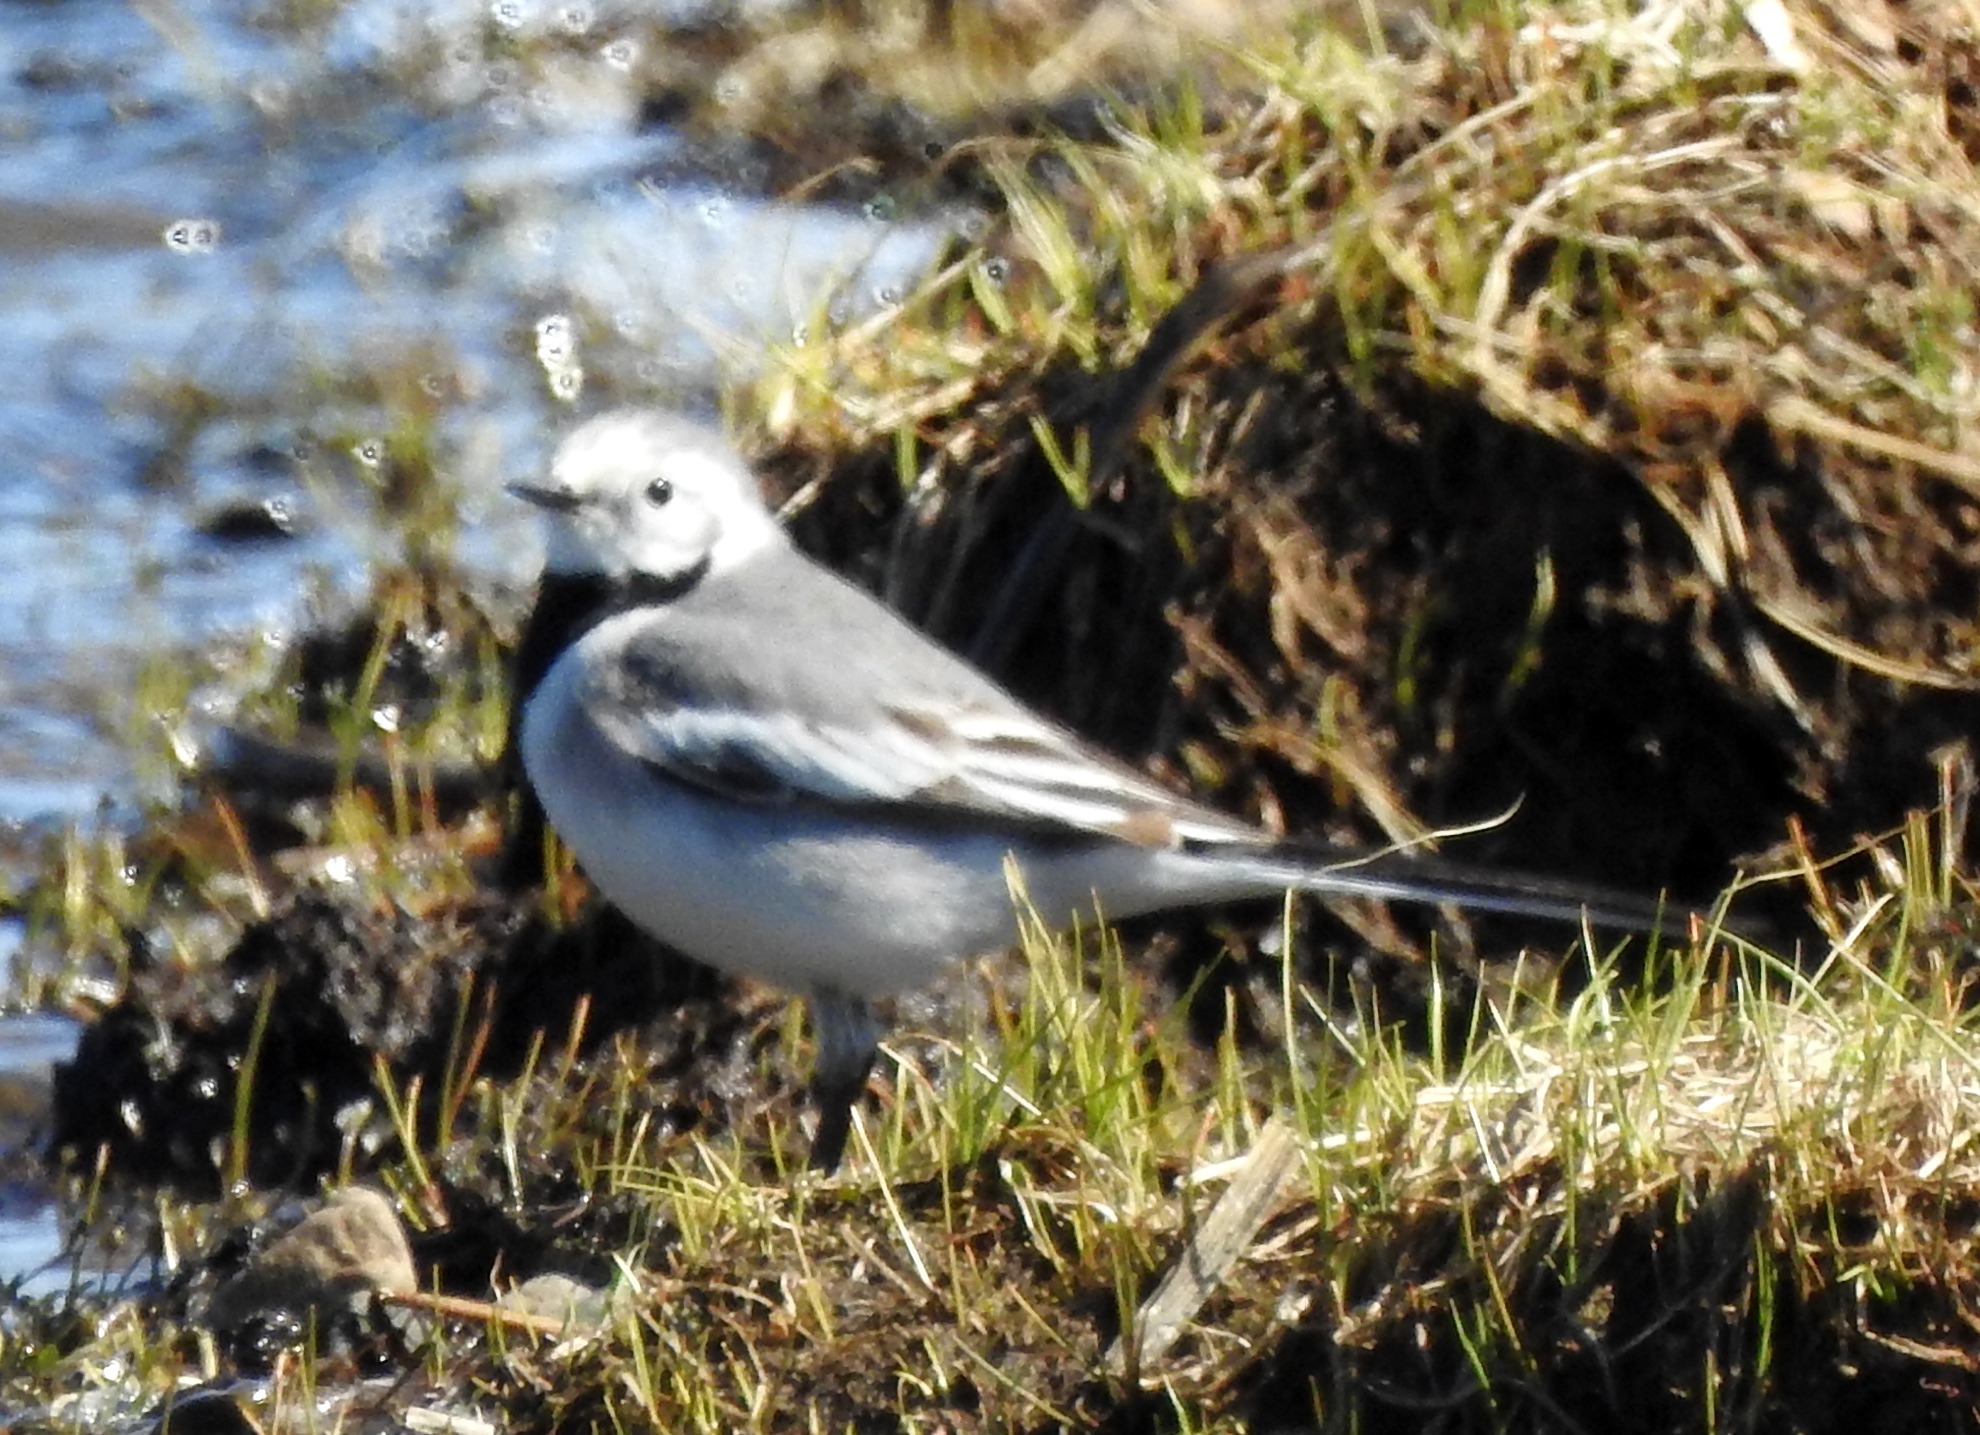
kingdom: Animalia
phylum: Chordata
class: Aves
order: Passeriformes
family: Motacillidae
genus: Motacilla
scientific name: Motacilla alba
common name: White wagtail
